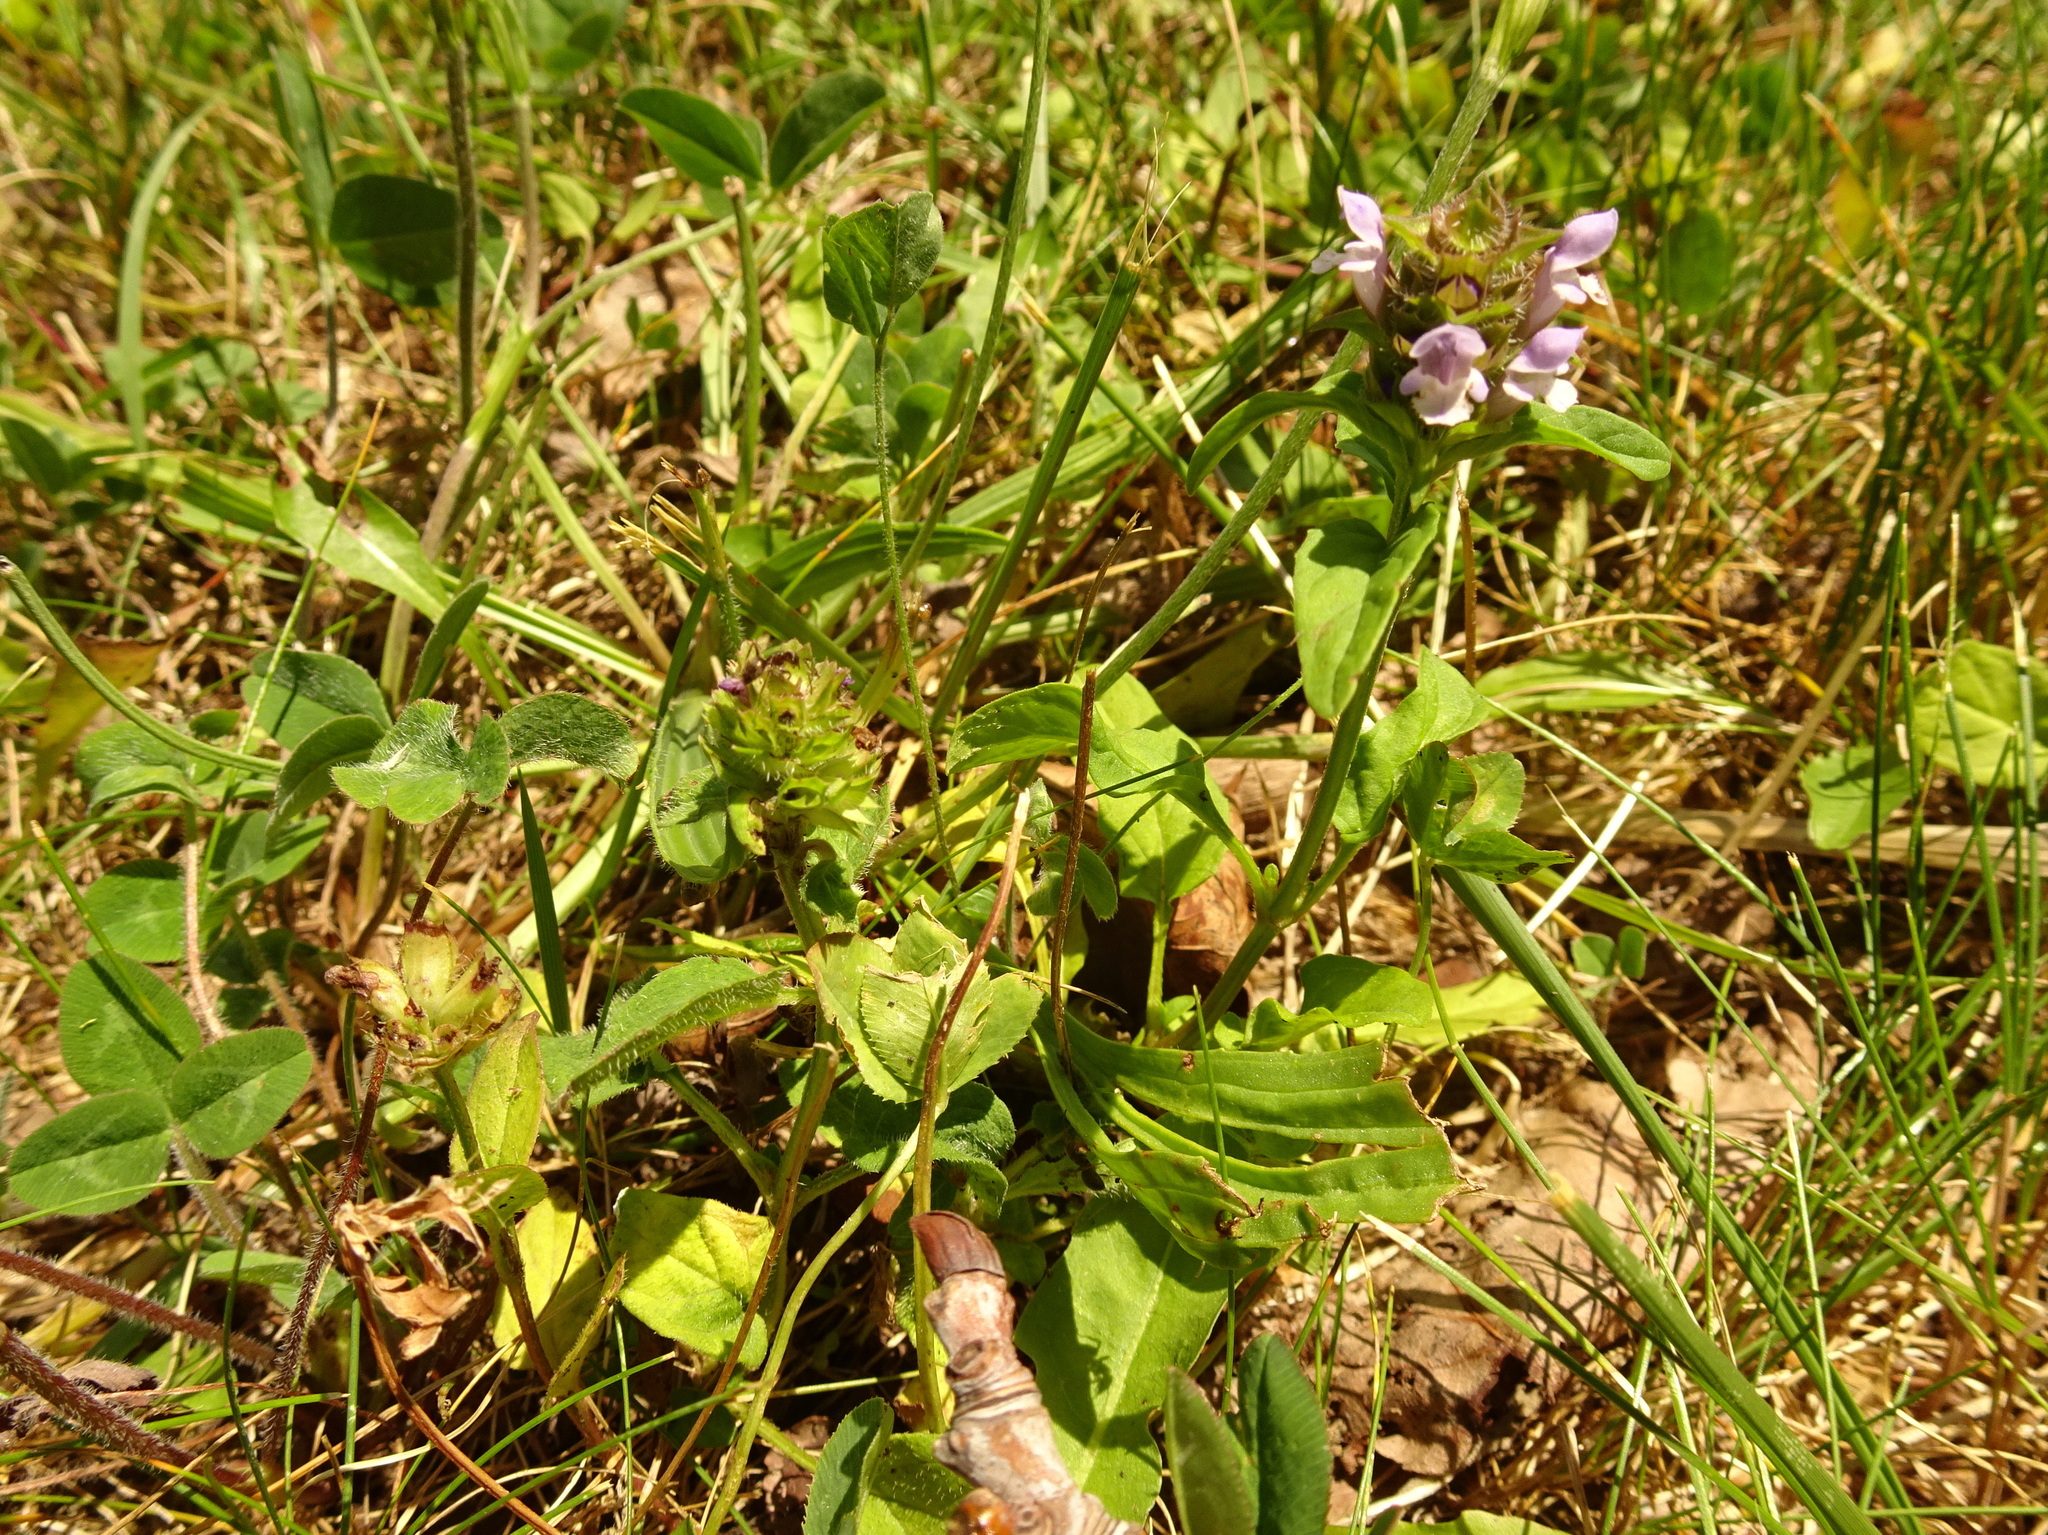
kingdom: Plantae
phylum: Tracheophyta
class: Magnoliopsida
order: Lamiales
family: Lamiaceae
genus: Prunella
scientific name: Prunella vulgaris
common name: Heal-all
